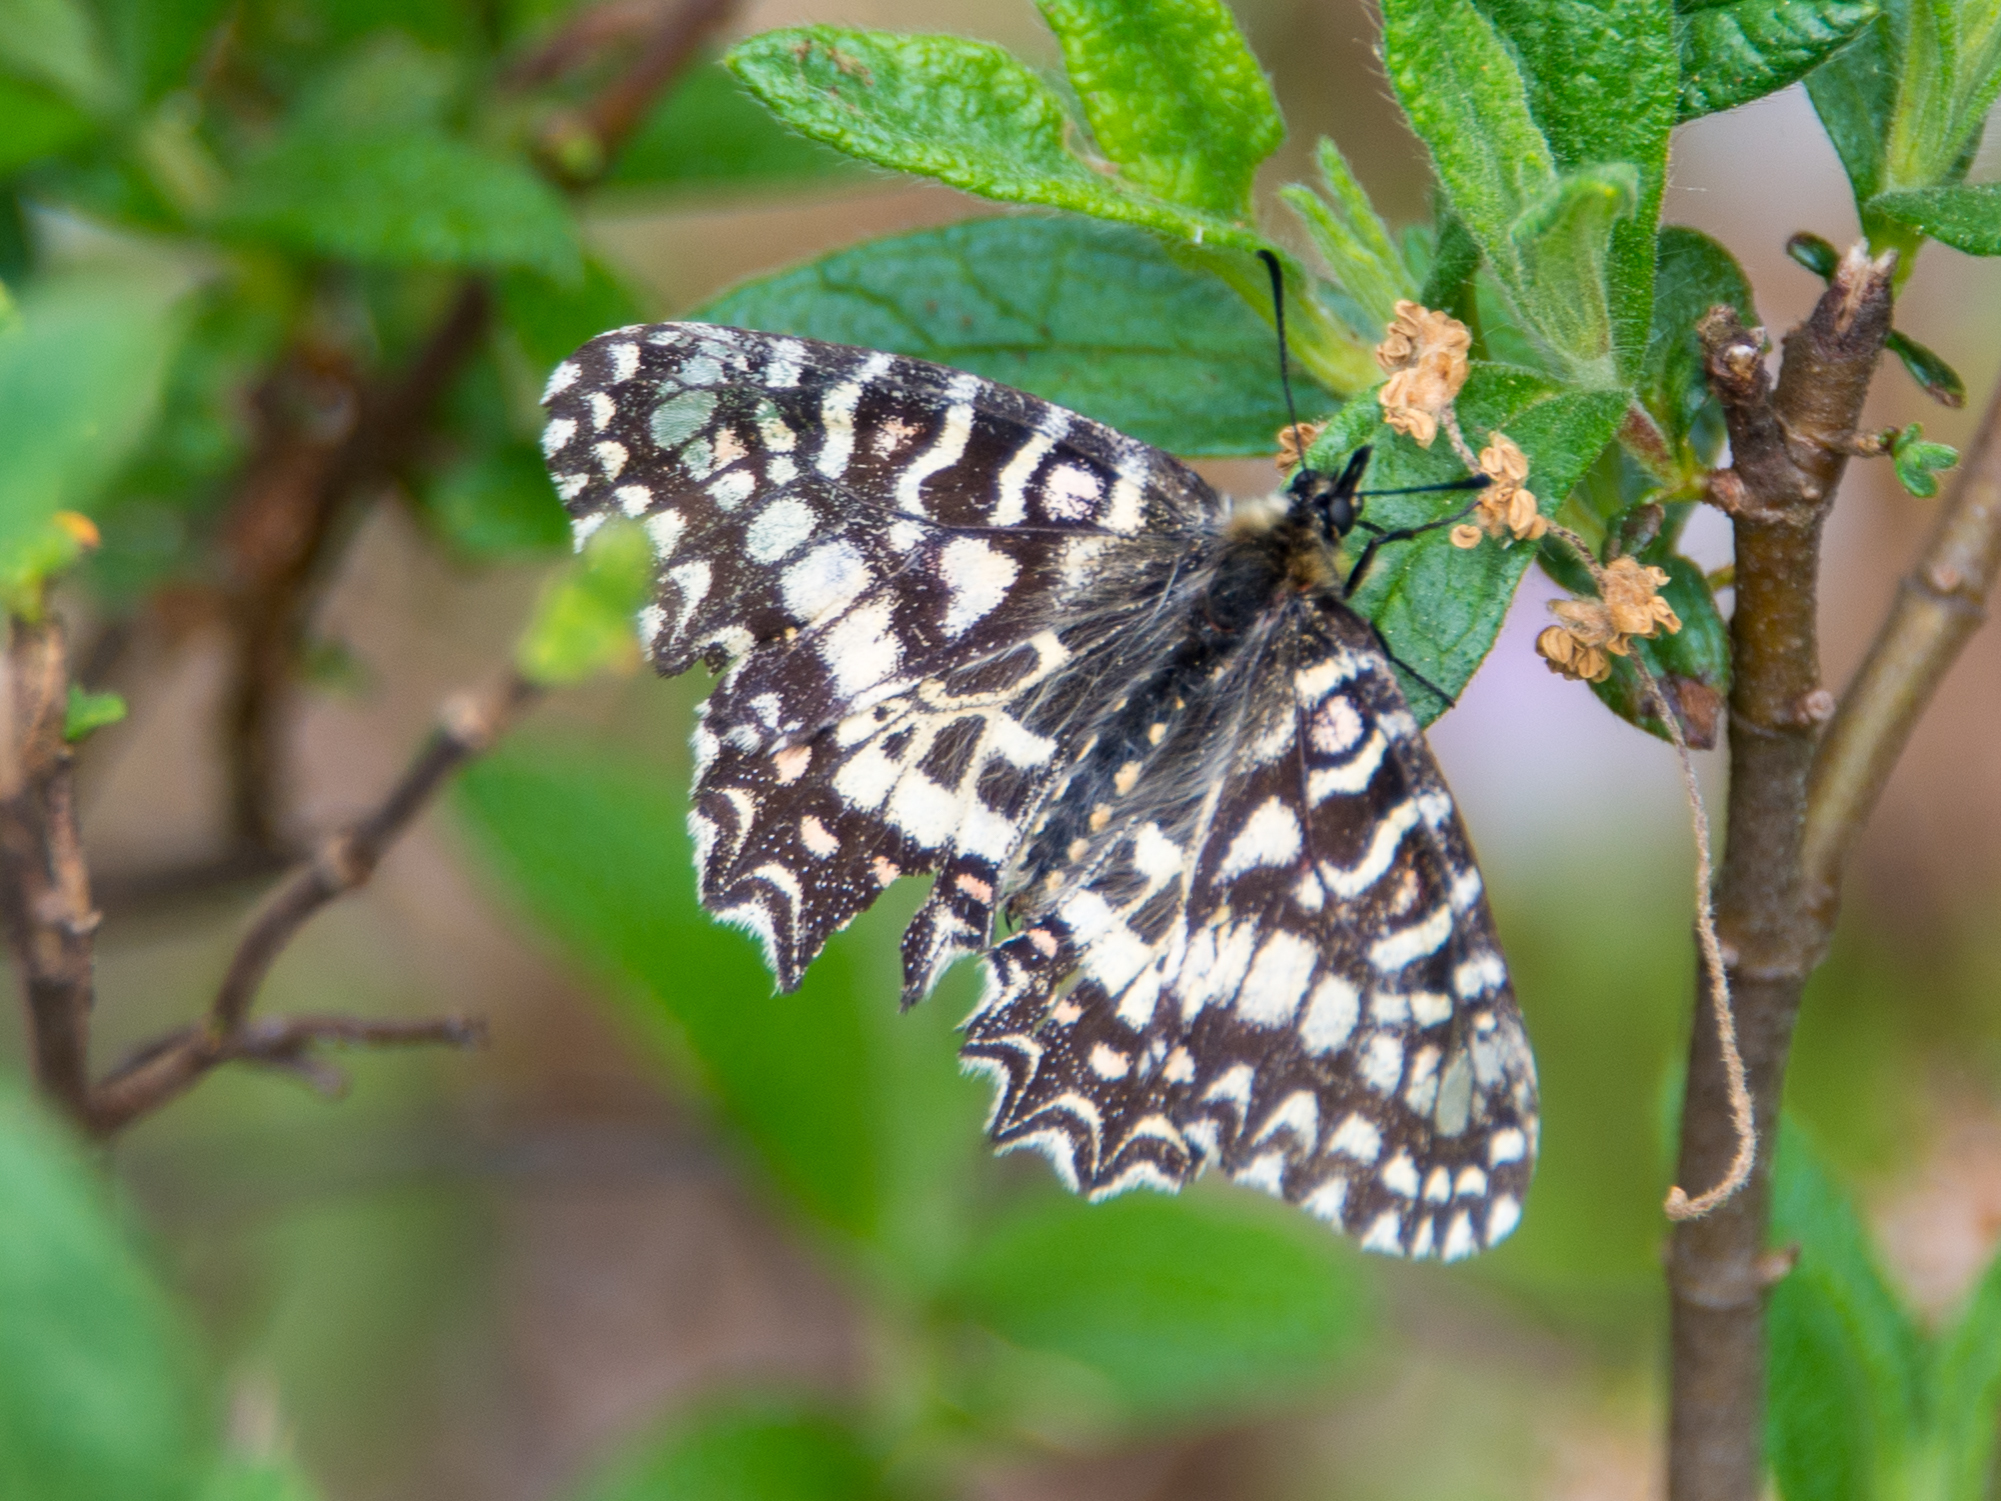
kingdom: Animalia
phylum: Arthropoda
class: Insecta
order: Lepidoptera
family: Papilionidae
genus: Zerynthia
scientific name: Zerynthia rumina
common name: Spanish festoon
